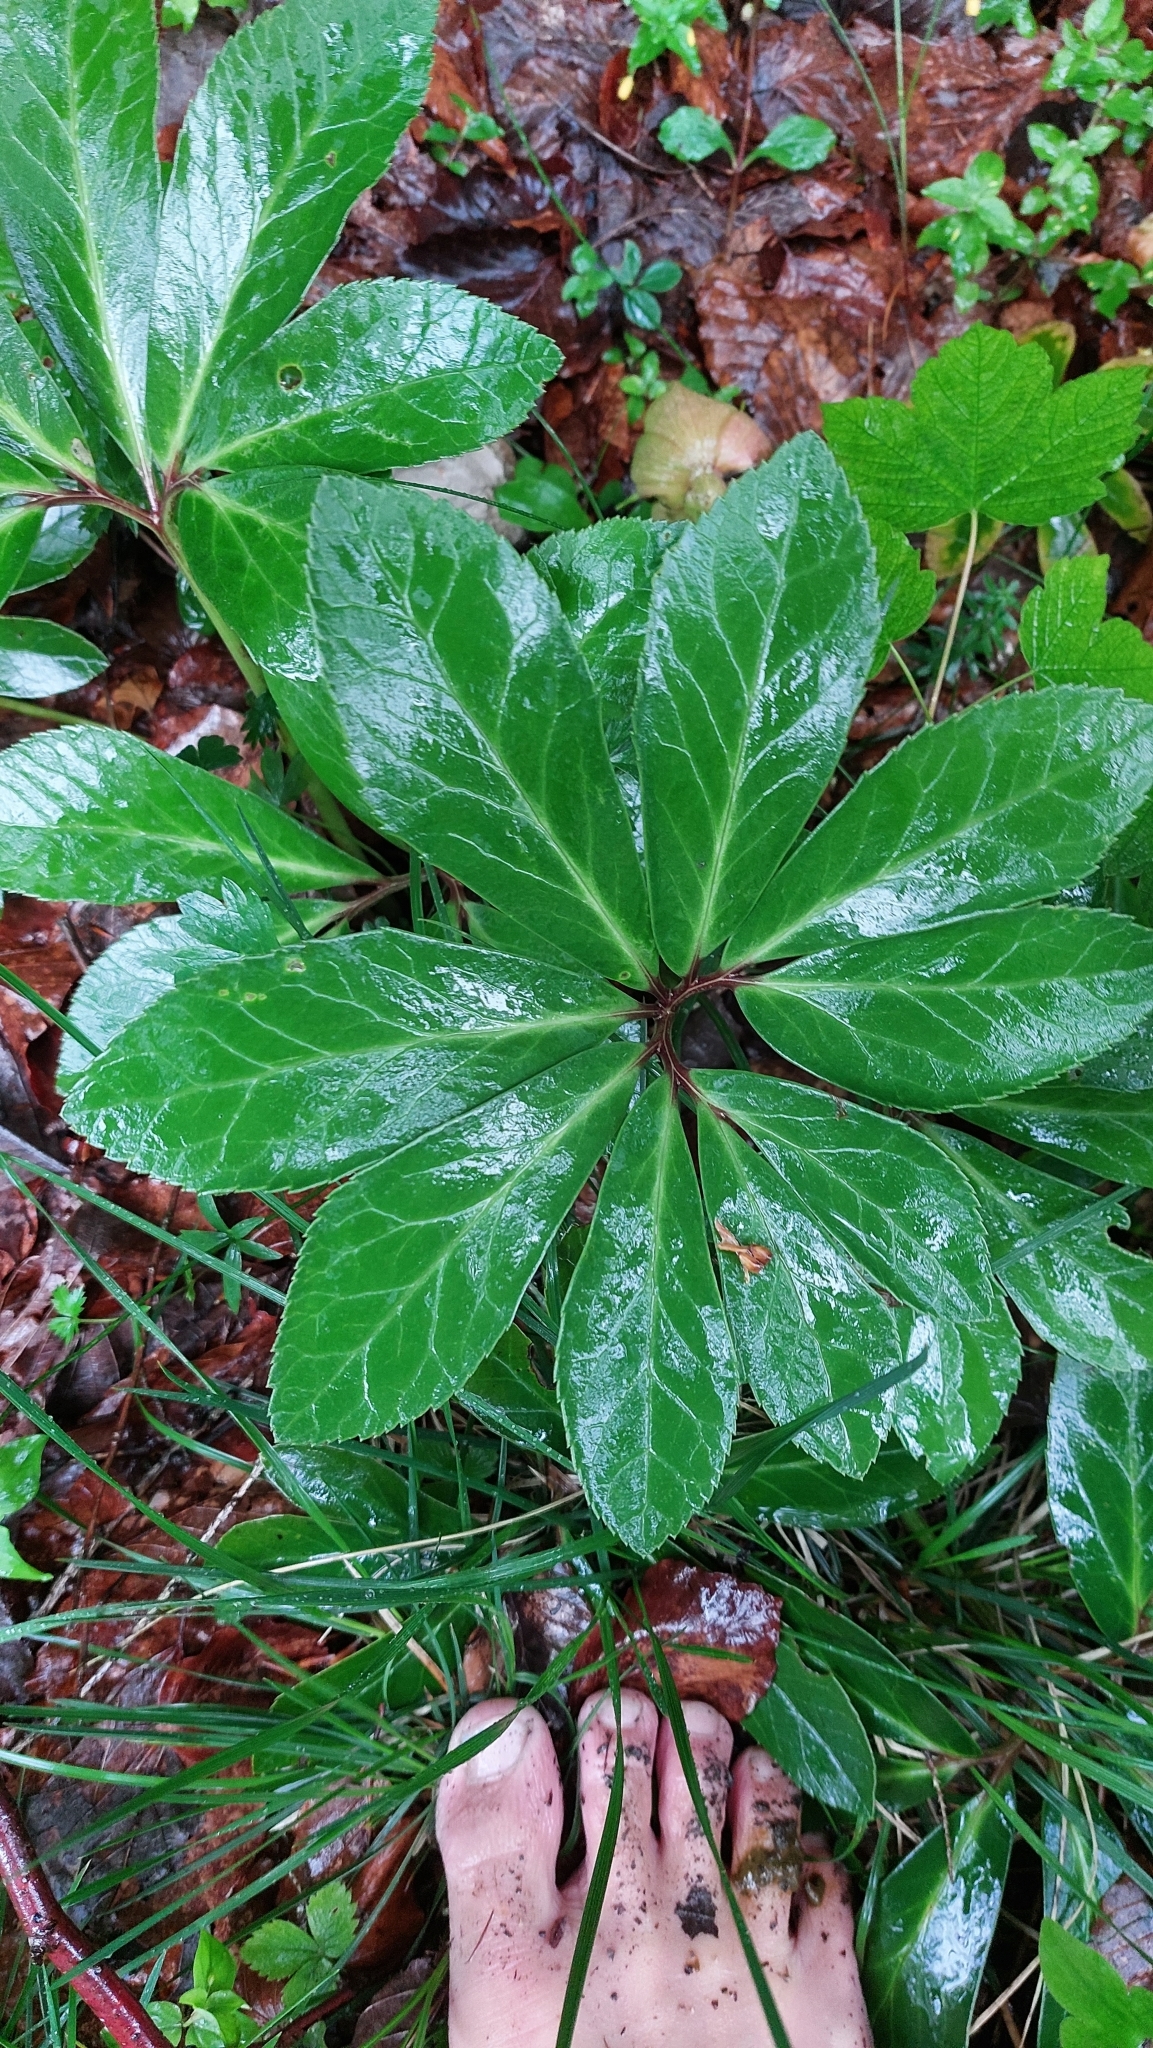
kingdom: Plantae
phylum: Tracheophyta
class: Magnoliopsida
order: Ranunculales
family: Ranunculaceae
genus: Helleborus
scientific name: Helleborus niger
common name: Black hellebore
